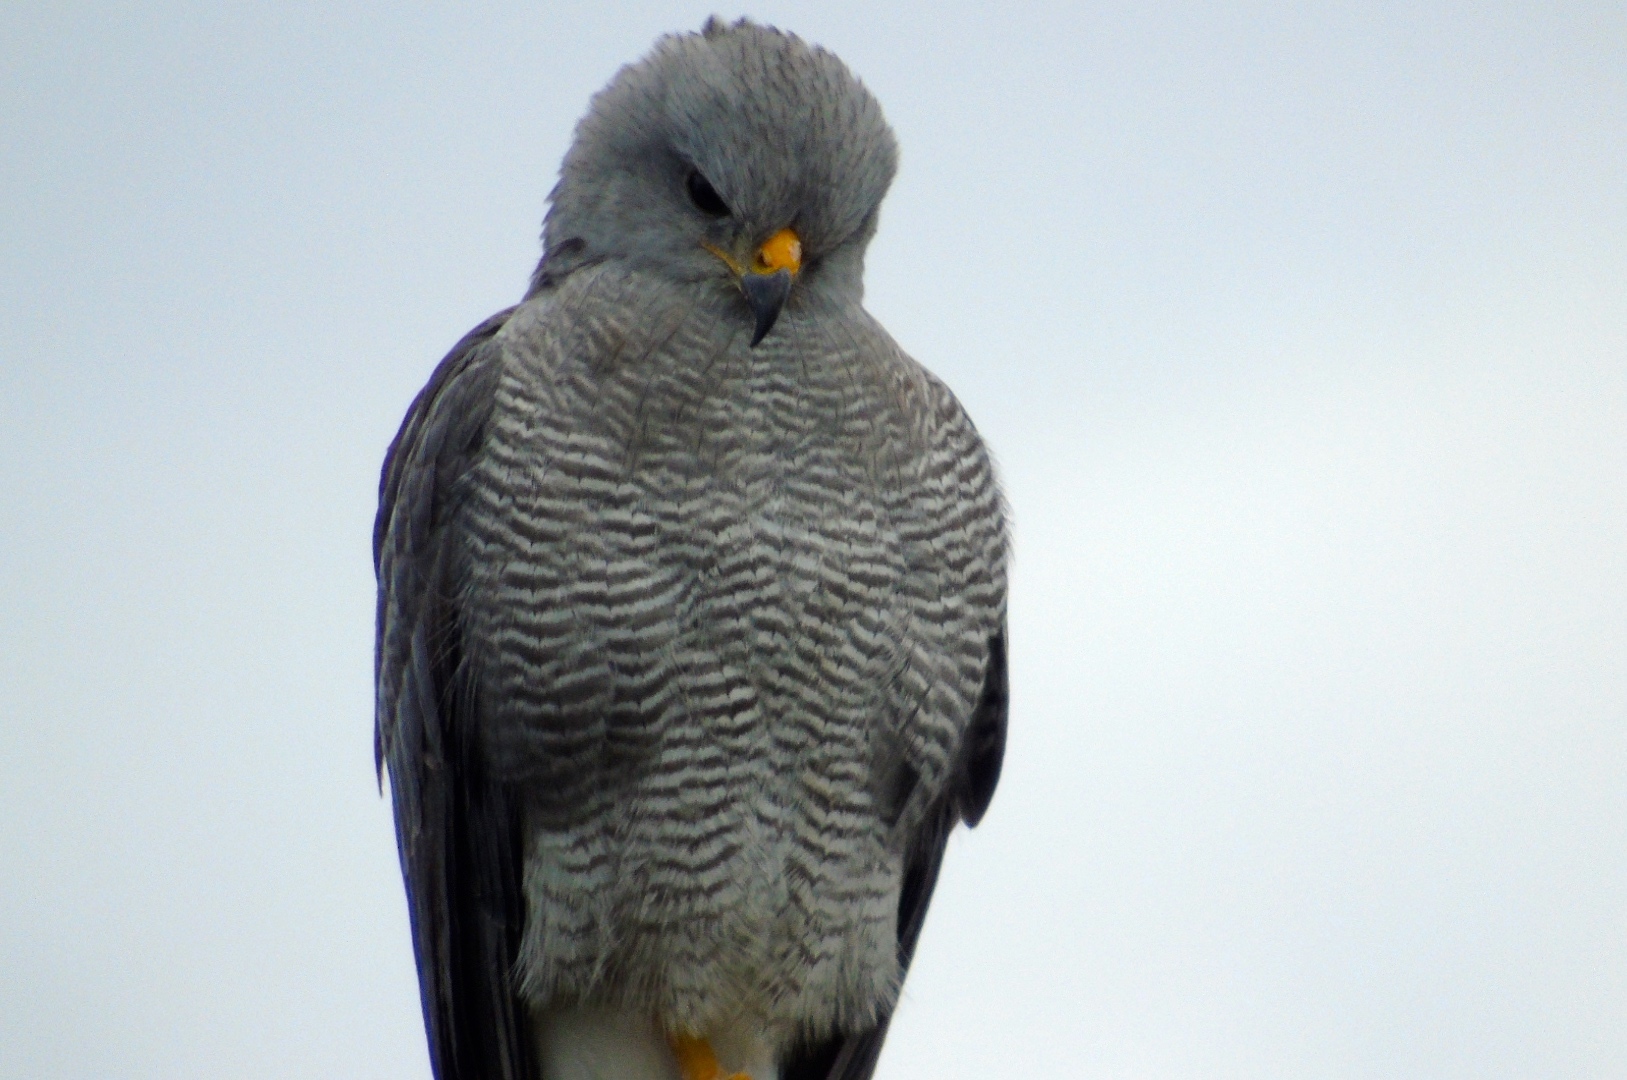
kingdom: Animalia
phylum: Chordata
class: Aves
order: Accipitriformes
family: Accipitridae
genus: Buteo
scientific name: Buteo nitidus
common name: Grey-lined hawk
